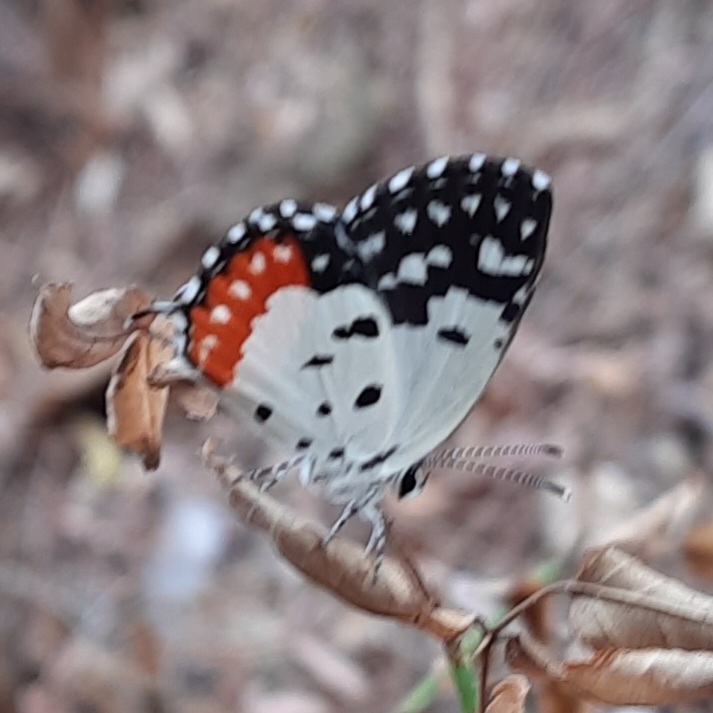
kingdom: Animalia
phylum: Arthropoda
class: Insecta
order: Lepidoptera
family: Lycaenidae
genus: Talicada
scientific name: Talicada nyseus
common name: Red pierrot
